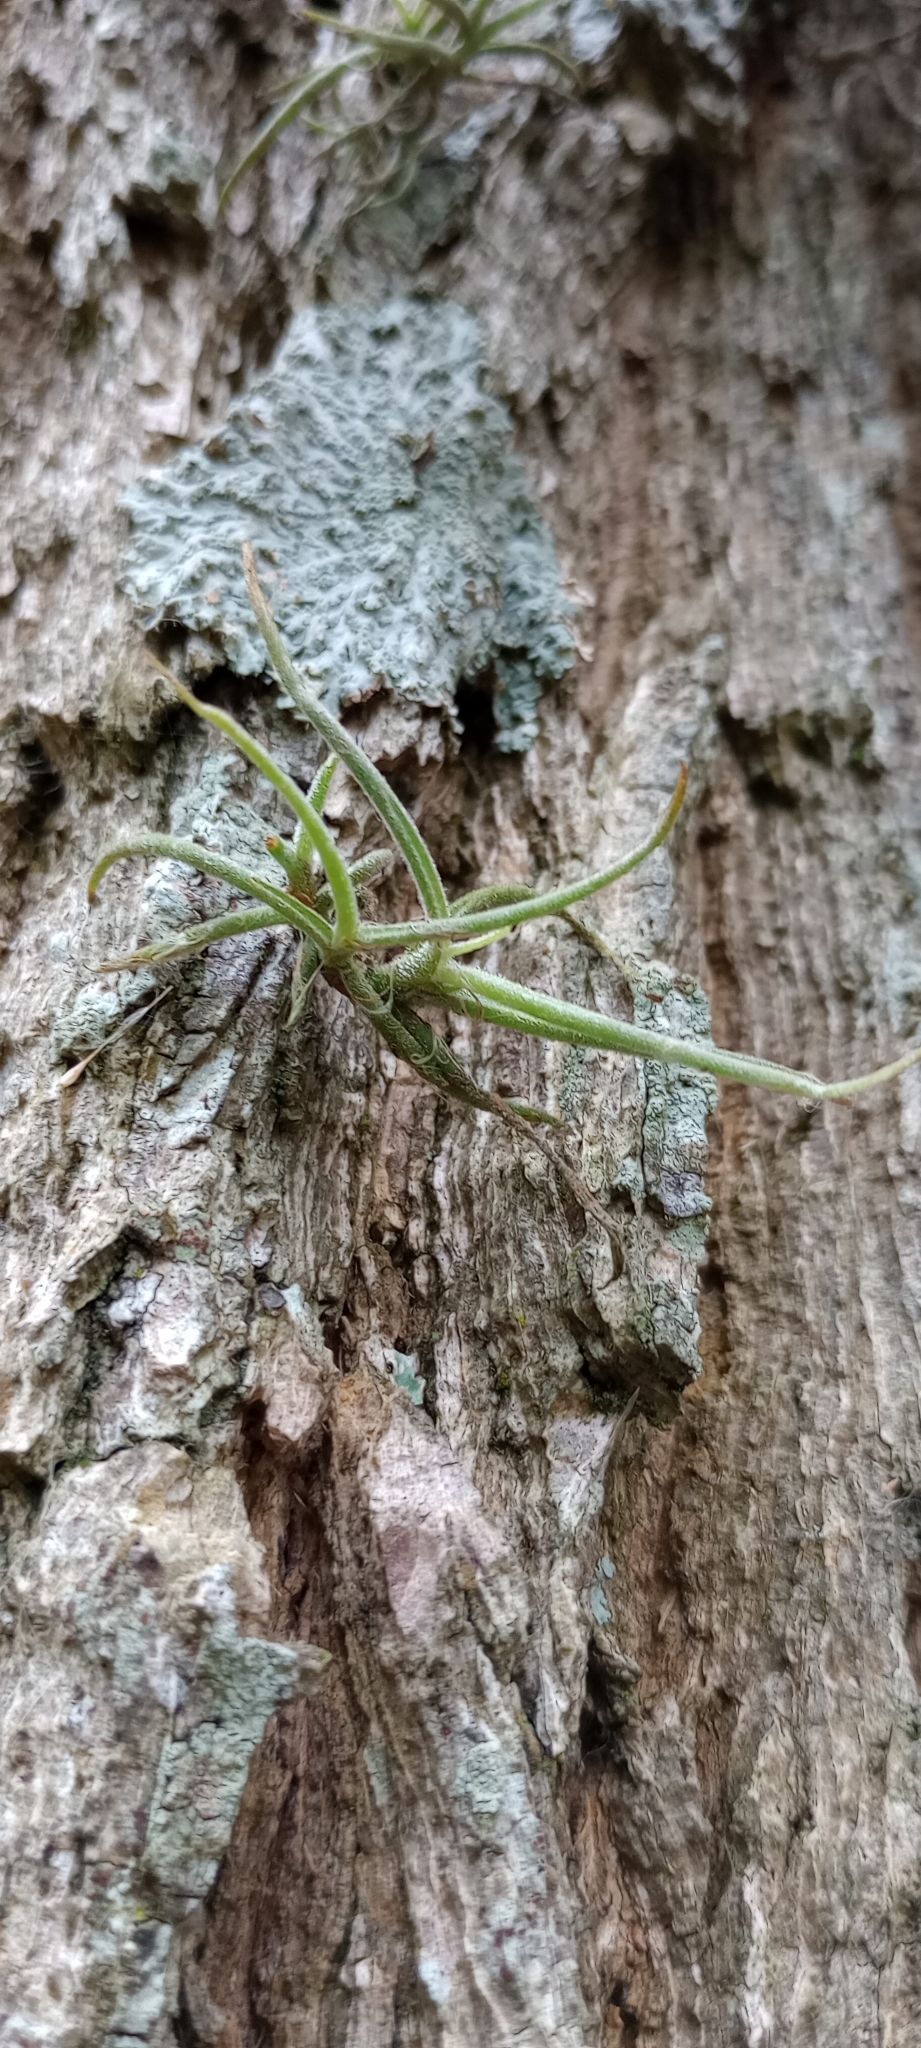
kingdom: Plantae
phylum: Tracheophyta
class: Liliopsida
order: Poales
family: Bromeliaceae
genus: Tillandsia
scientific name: Tillandsia recurvata
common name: Small ballmoss
